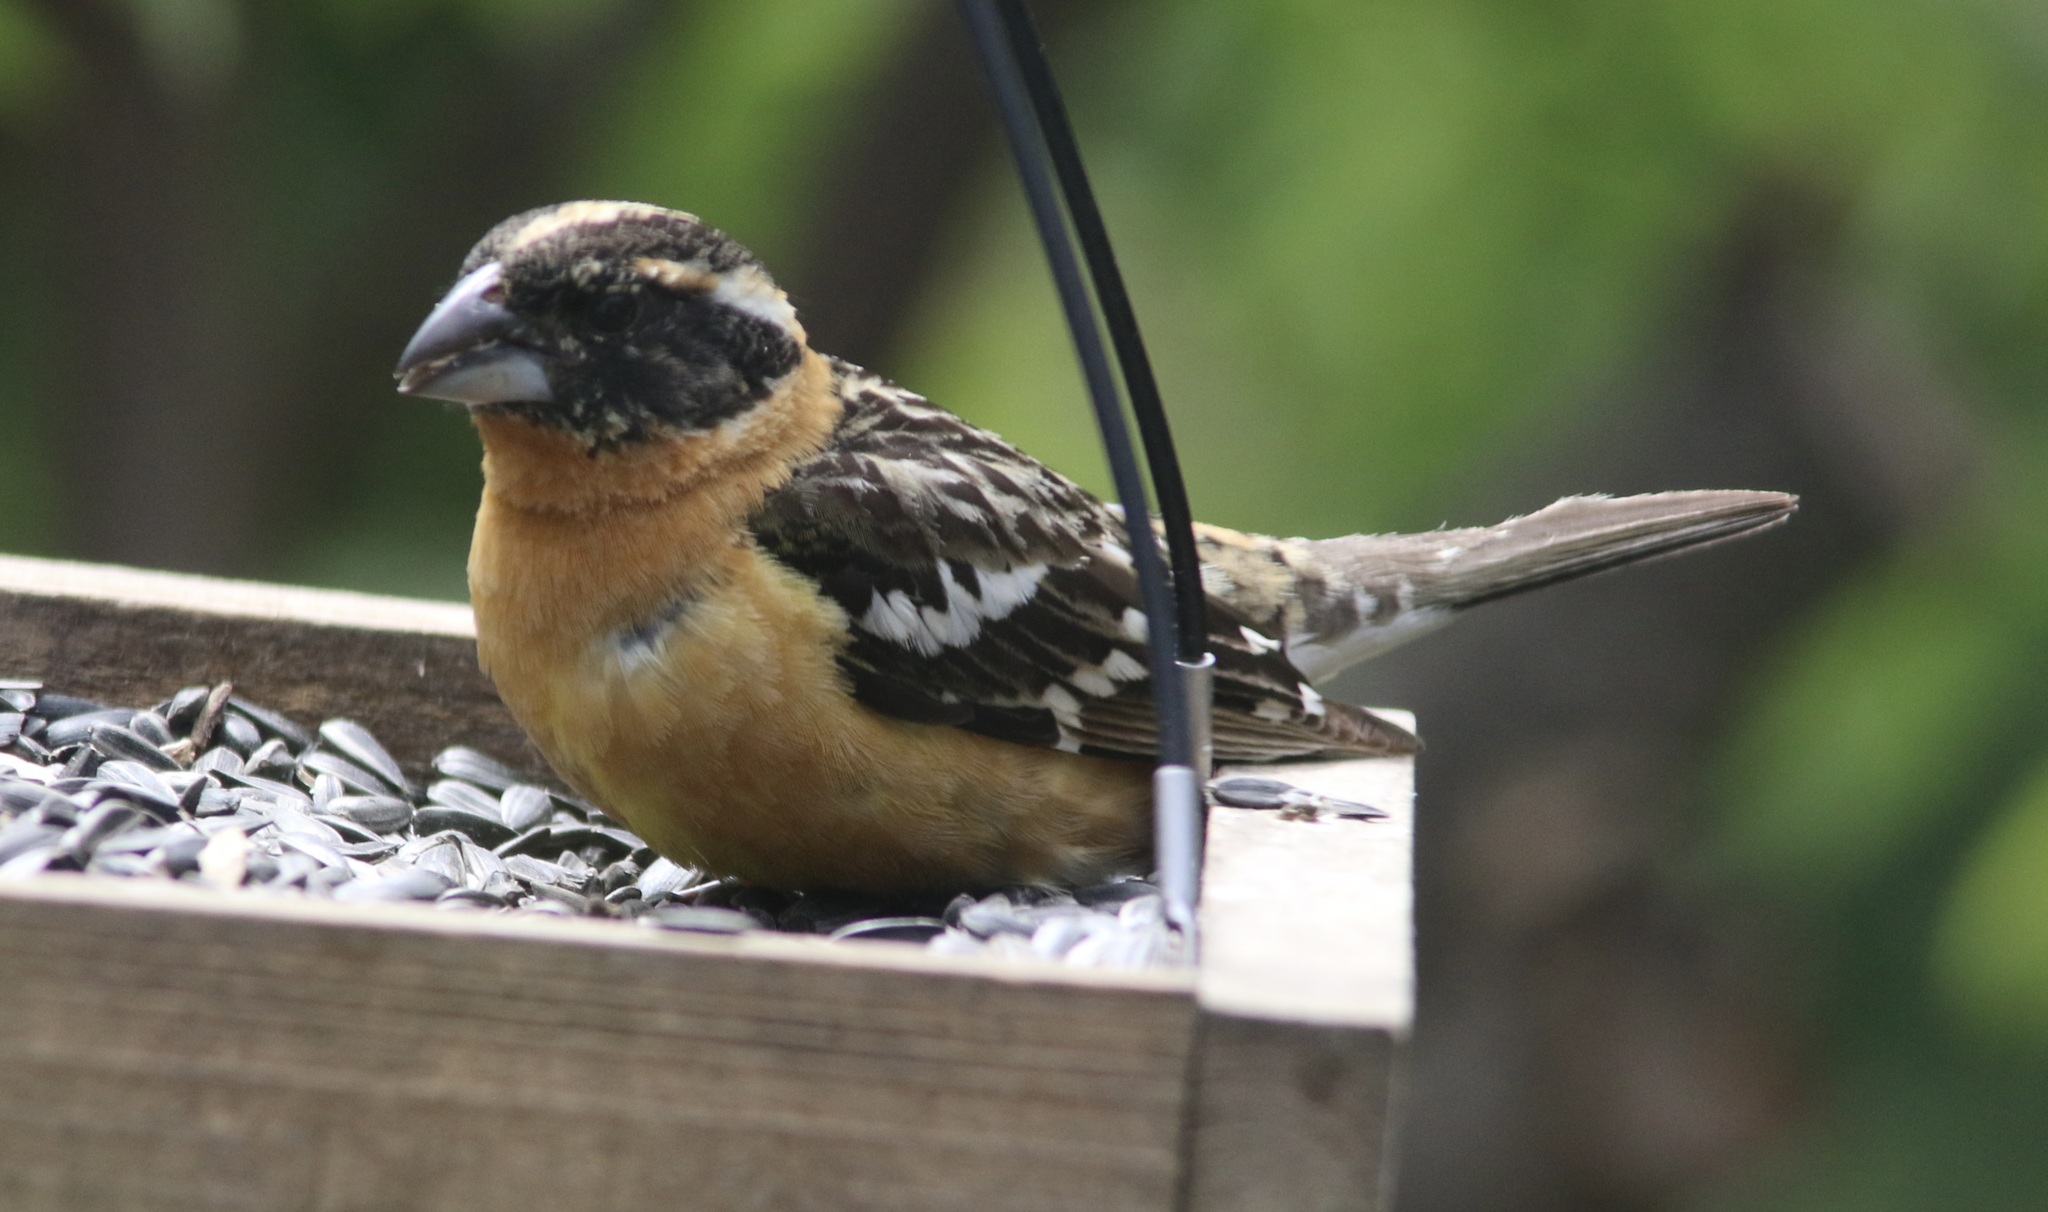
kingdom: Animalia
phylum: Chordata
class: Aves
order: Passeriformes
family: Cardinalidae
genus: Pheucticus
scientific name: Pheucticus melanocephalus
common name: Black-headed grosbeak
